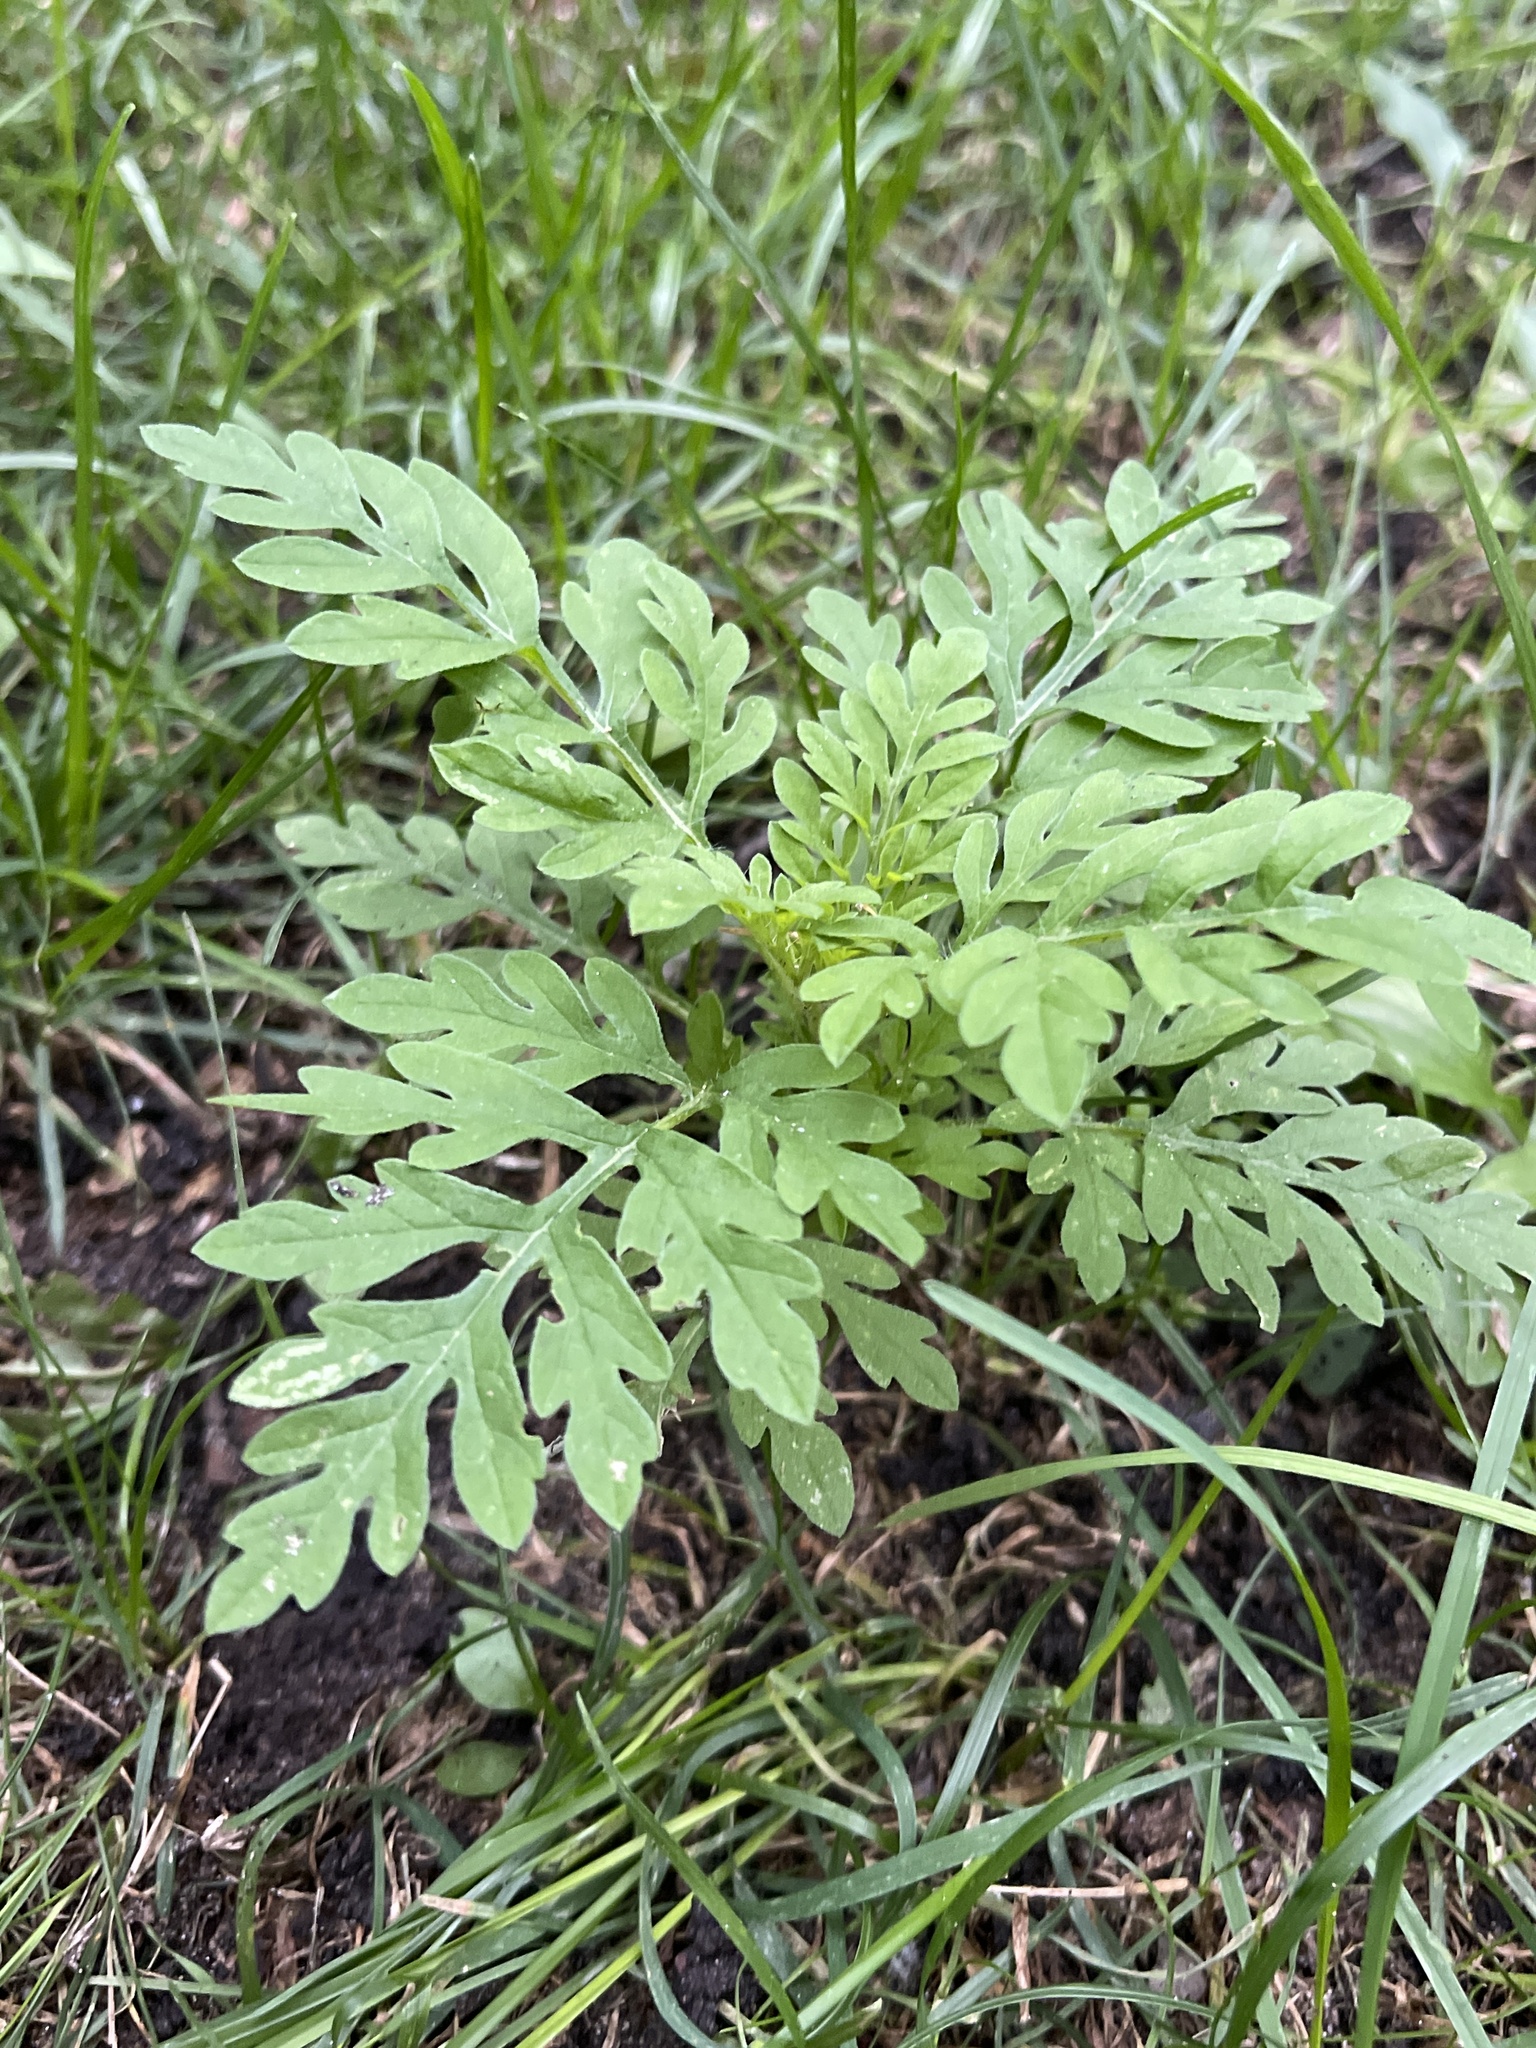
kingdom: Plantae
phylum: Tracheophyta
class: Magnoliopsida
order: Asterales
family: Asteraceae
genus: Ambrosia
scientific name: Ambrosia artemisiifolia
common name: Annual ragweed
